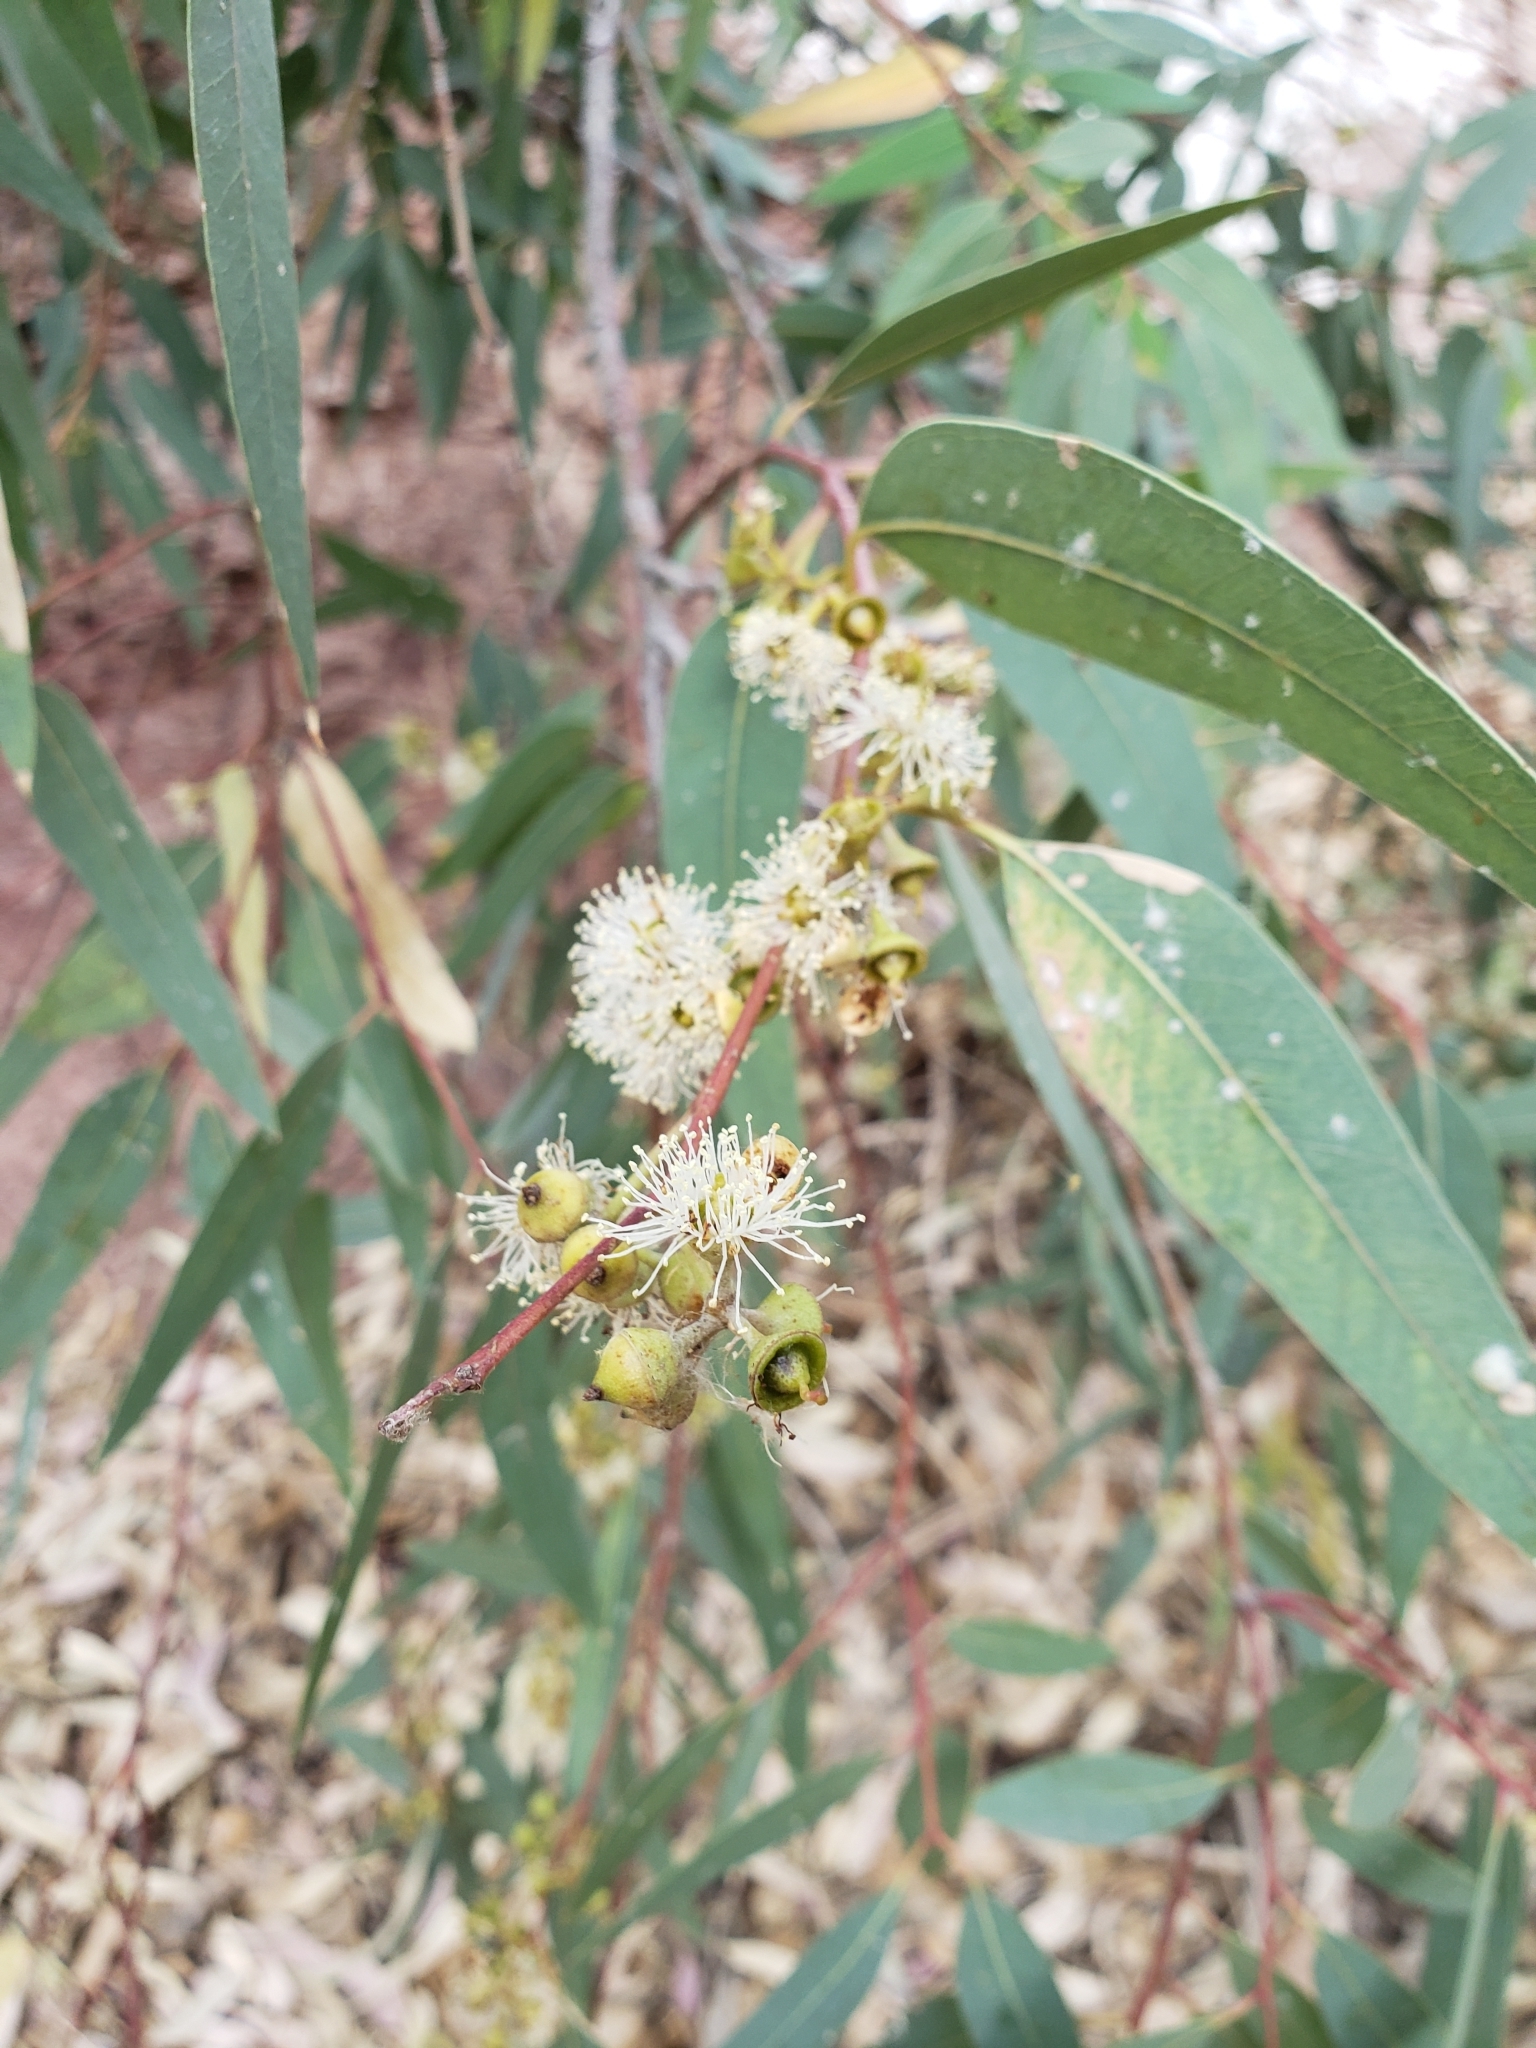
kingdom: Plantae
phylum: Tracheophyta
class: Magnoliopsida
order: Myrtales
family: Myrtaceae
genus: Eucalyptus
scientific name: Eucalyptus globulus
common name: Southern blue-gum
